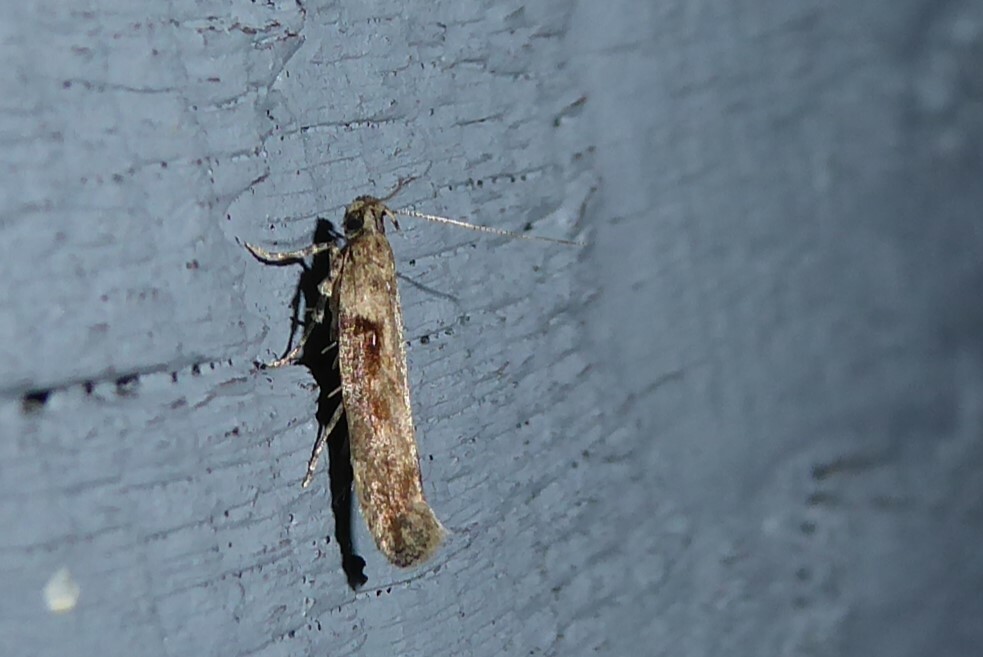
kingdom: Animalia
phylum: Arthropoda
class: Insecta
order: Lepidoptera
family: Gelechiidae
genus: Symmetrischema
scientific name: Symmetrischema tangolias
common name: Moth
